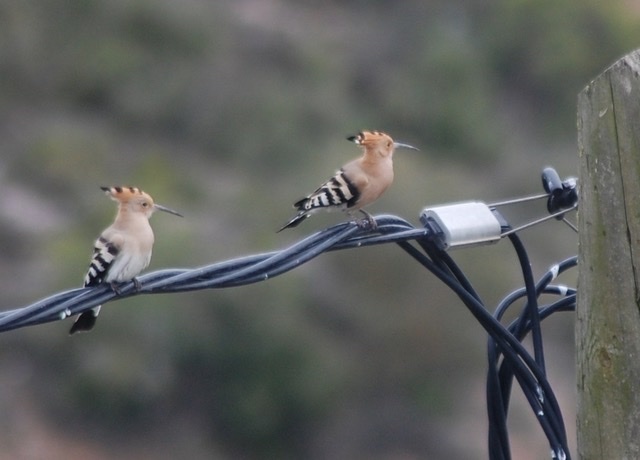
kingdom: Animalia
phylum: Chordata
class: Aves
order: Bucerotiformes
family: Upupidae
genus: Upupa
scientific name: Upupa epops
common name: Eurasian hoopoe
